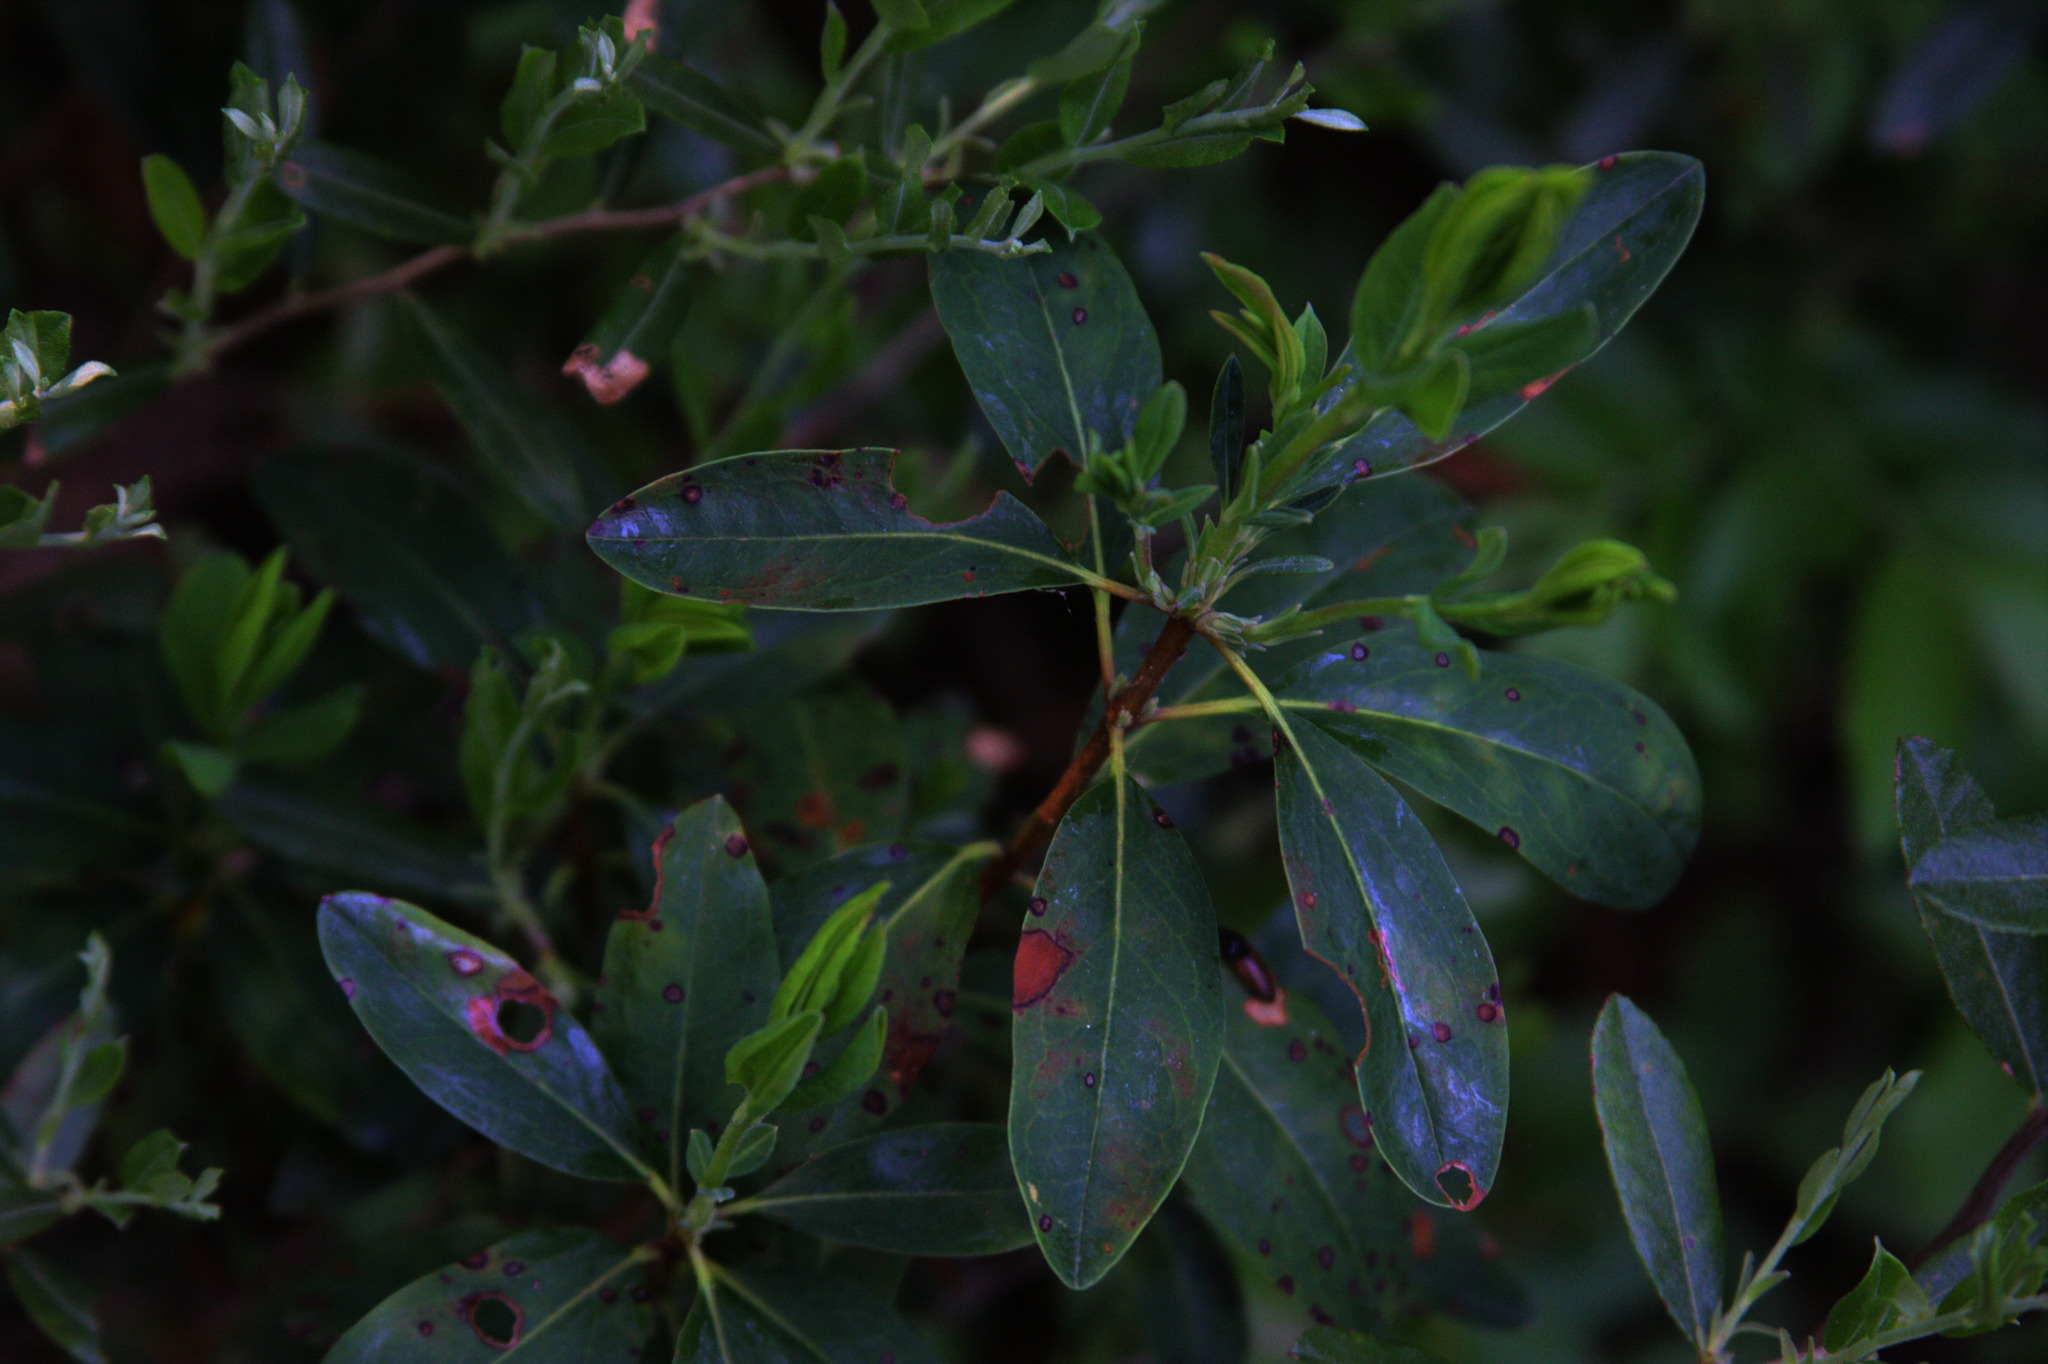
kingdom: Plantae
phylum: Tracheophyta
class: Magnoliopsida
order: Ericales
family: Ericaceae
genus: Kalmia
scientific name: Kalmia angustifolia
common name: Sheep-laurel
